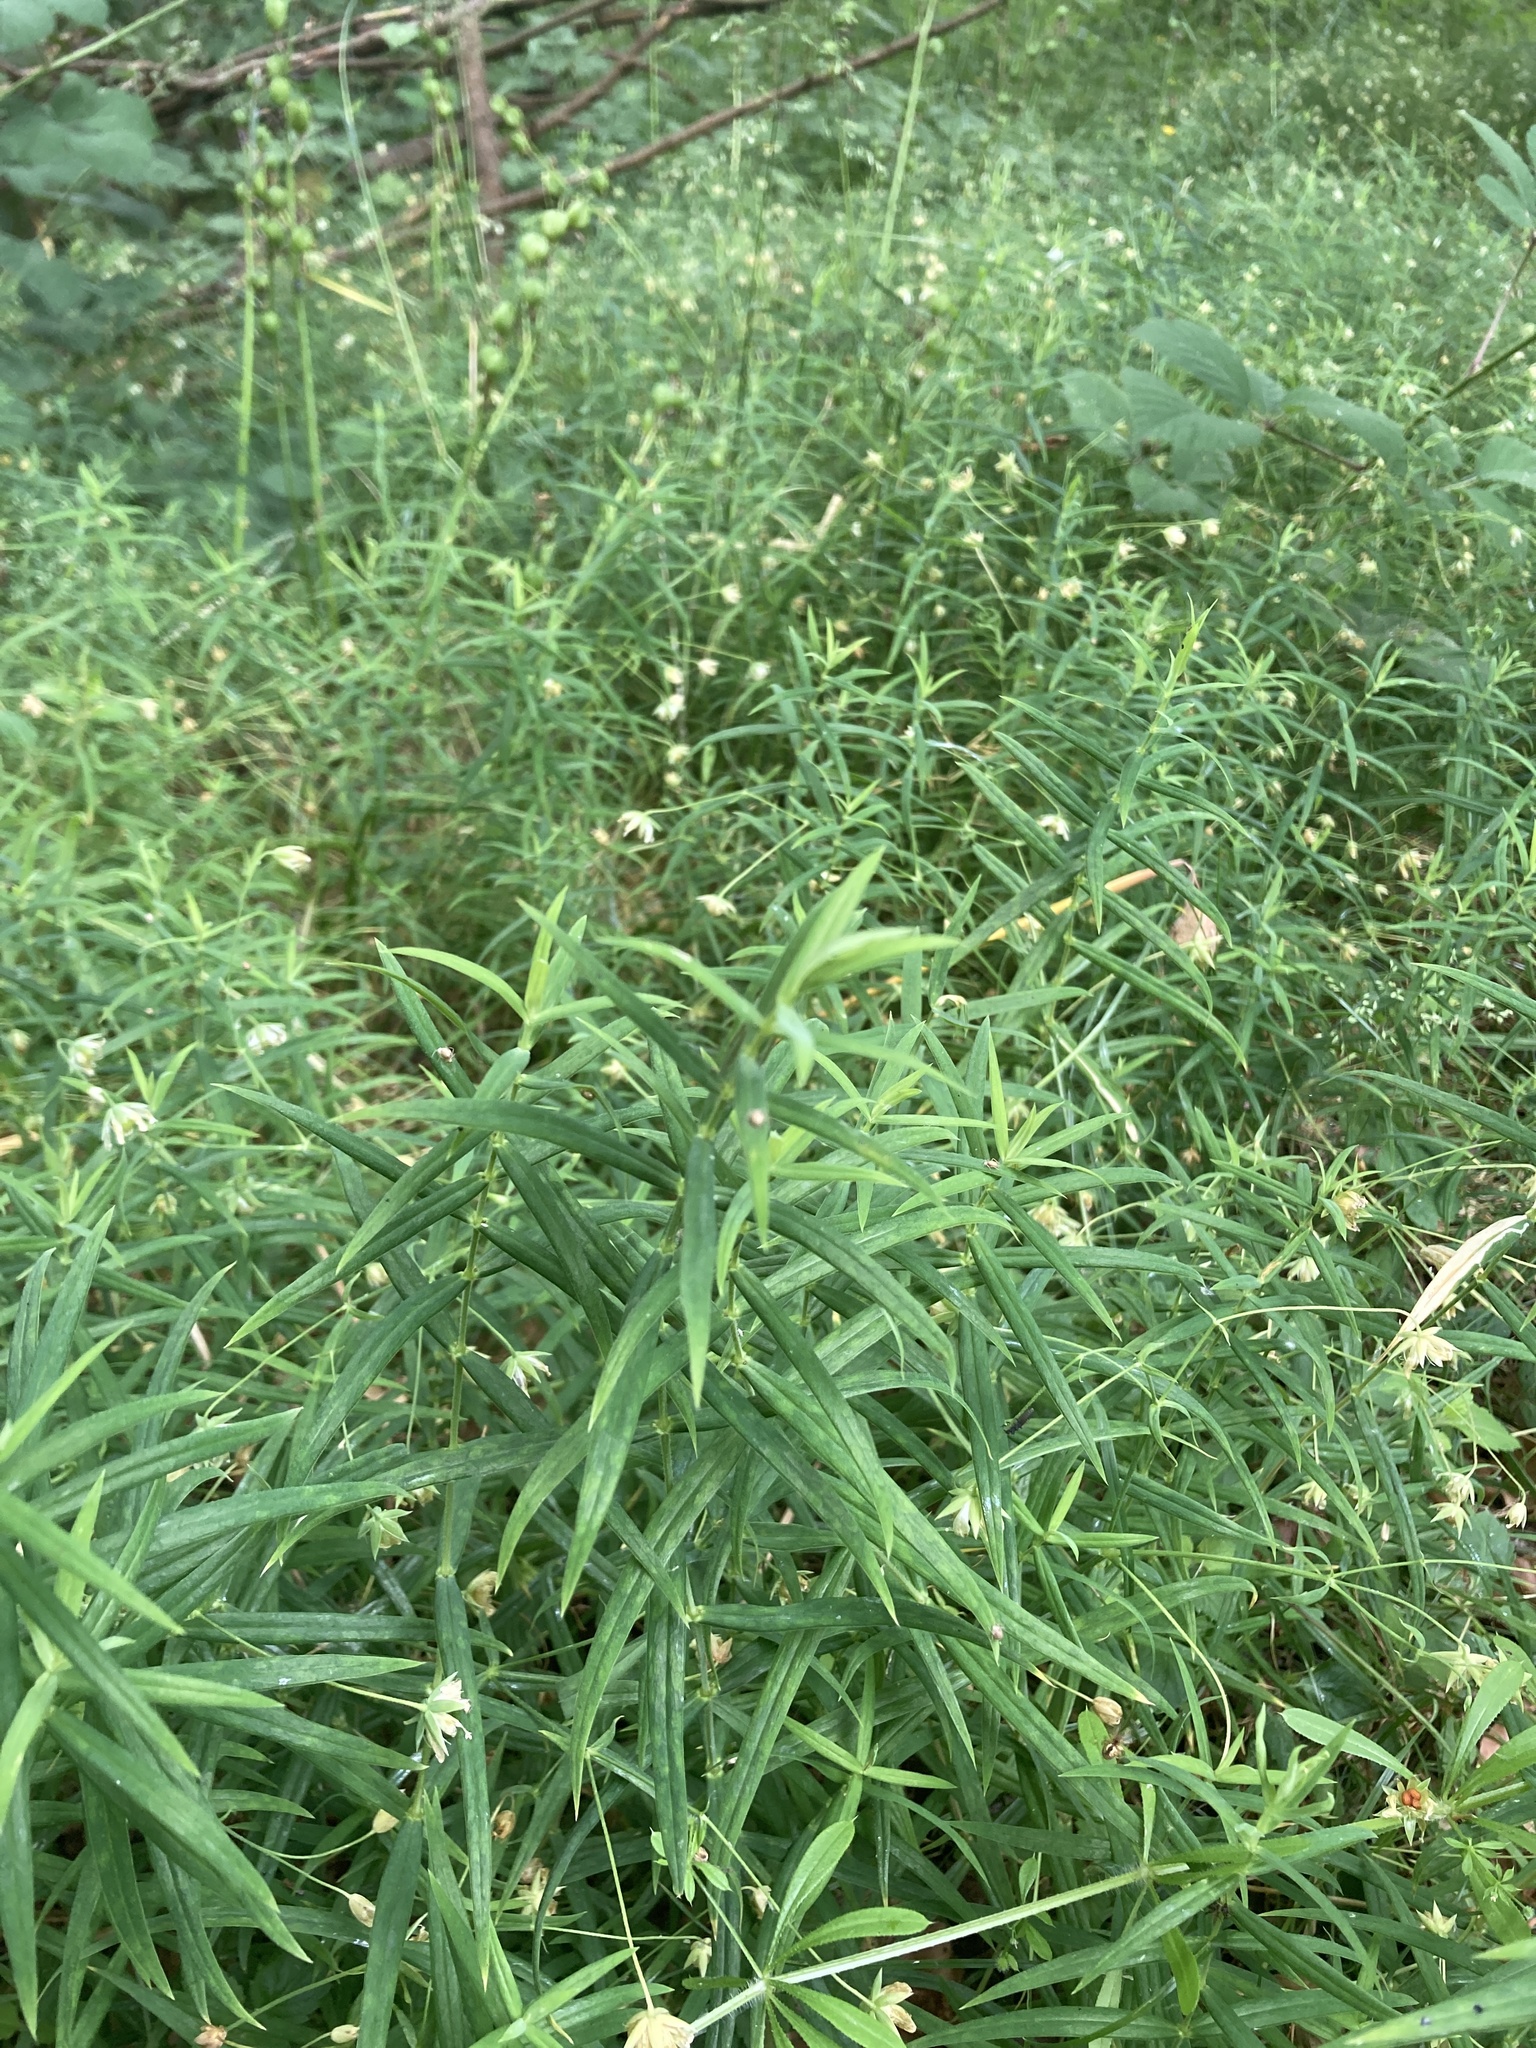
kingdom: Plantae
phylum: Tracheophyta
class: Magnoliopsida
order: Caryophyllales
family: Caryophyllaceae
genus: Rabelera
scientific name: Rabelera holostea
